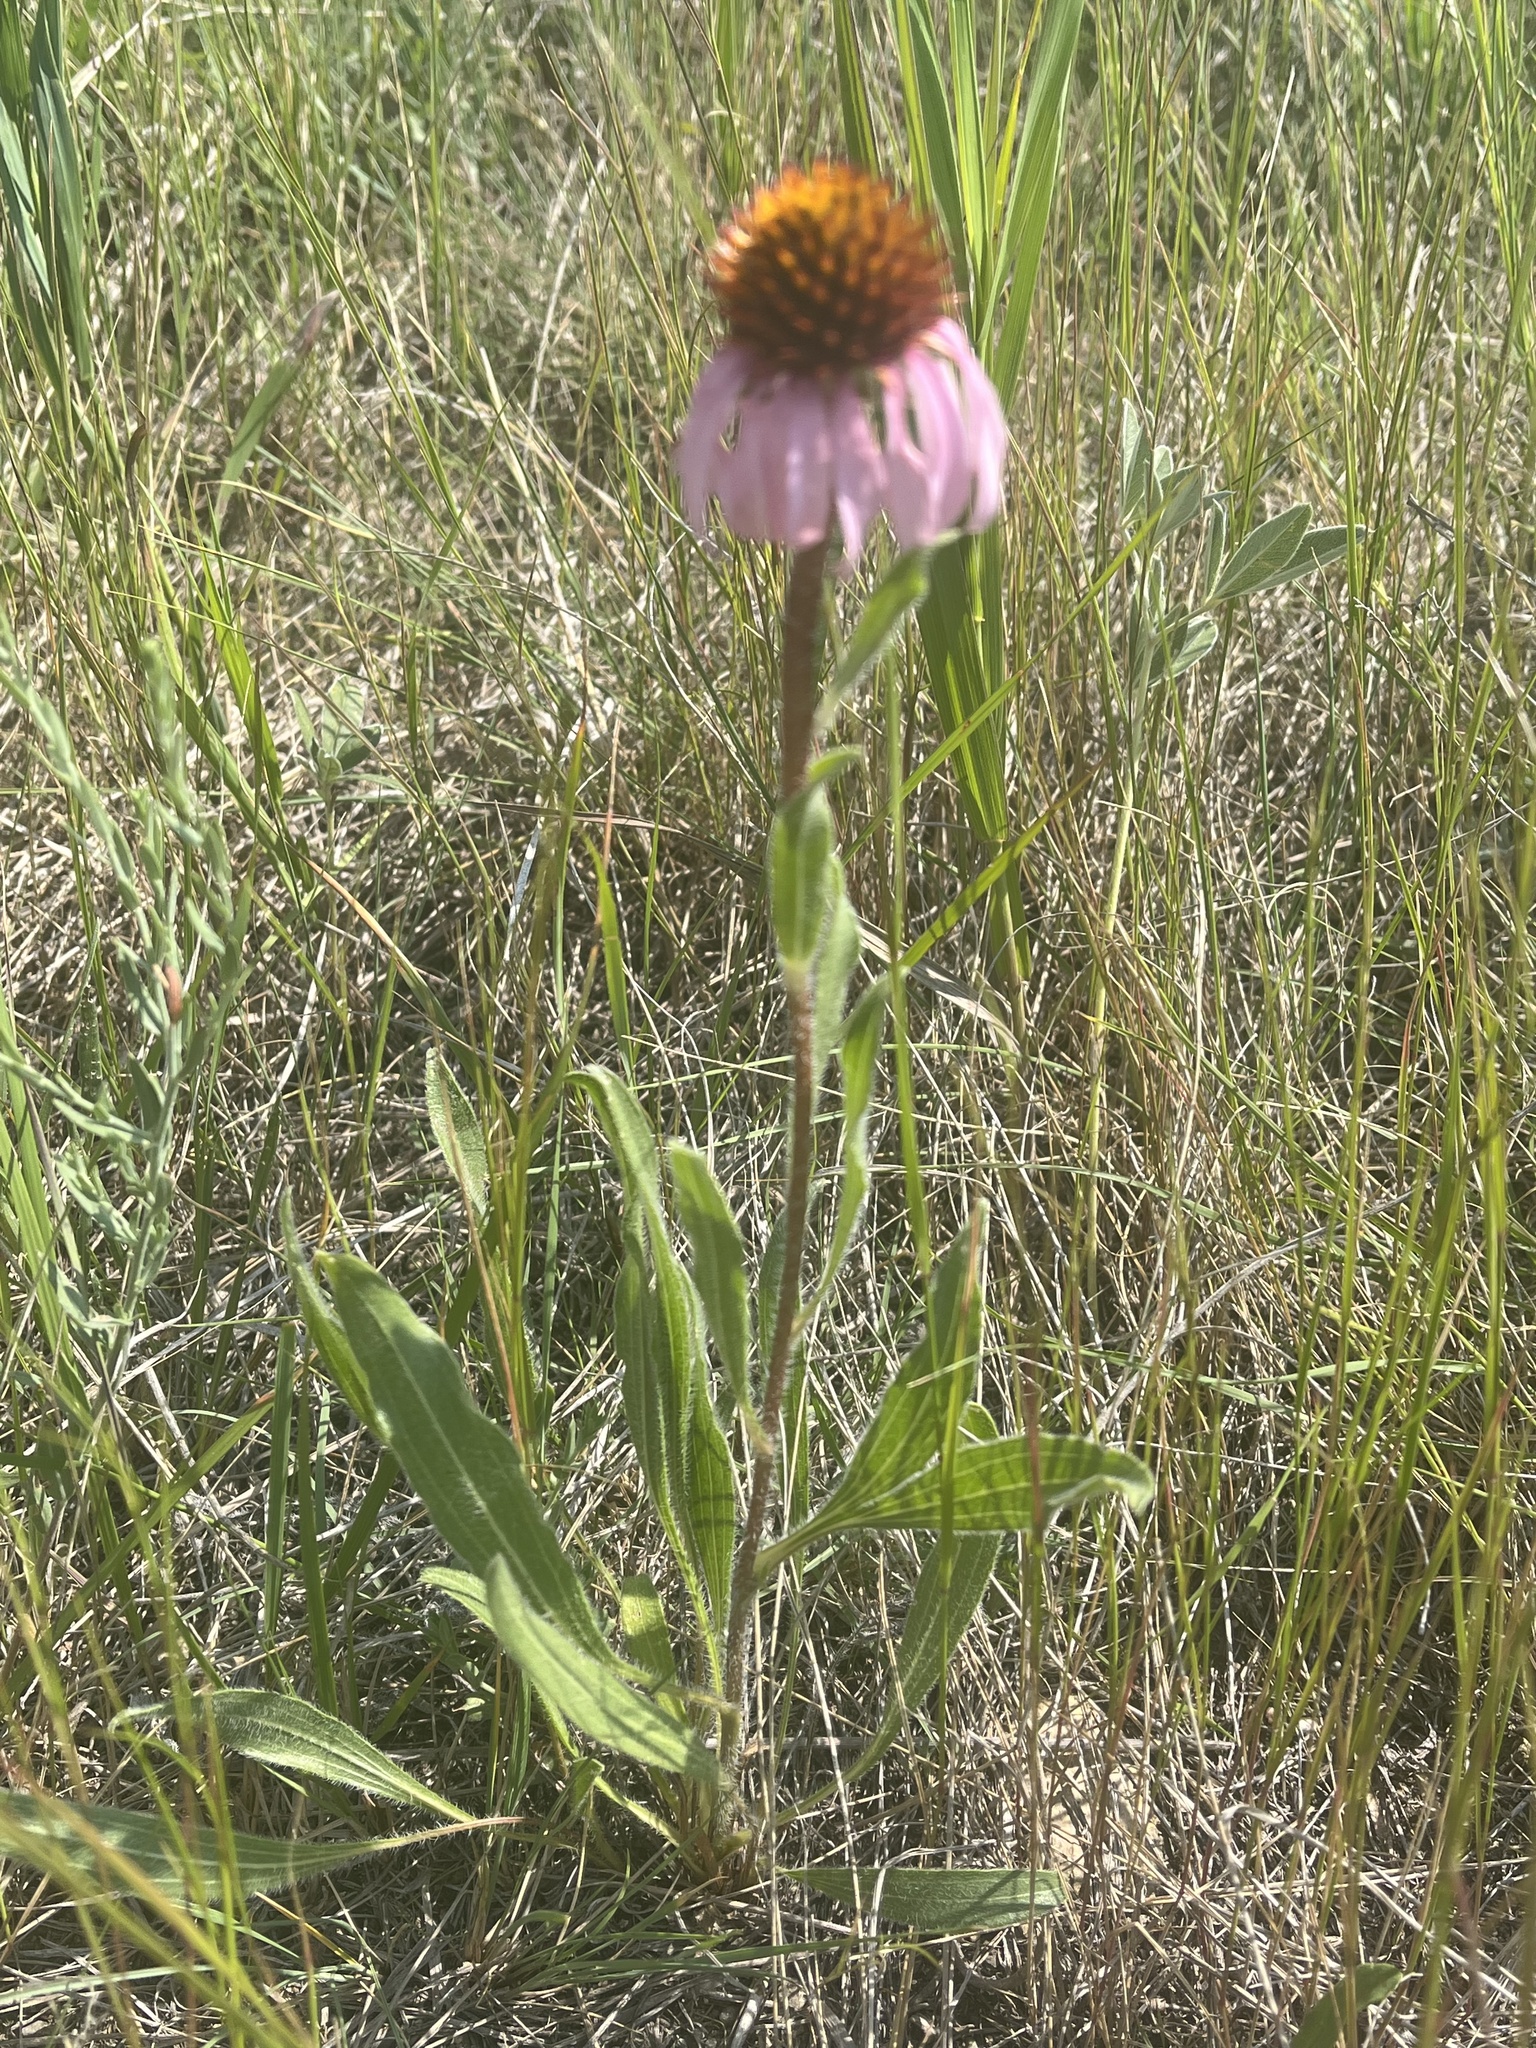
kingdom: Plantae
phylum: Tracheophyta
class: Magnoliopsida
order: Asterales
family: Asteraceae
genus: Echinacea
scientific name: Echinacea angustifolia
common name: Black-sampson echinacea
